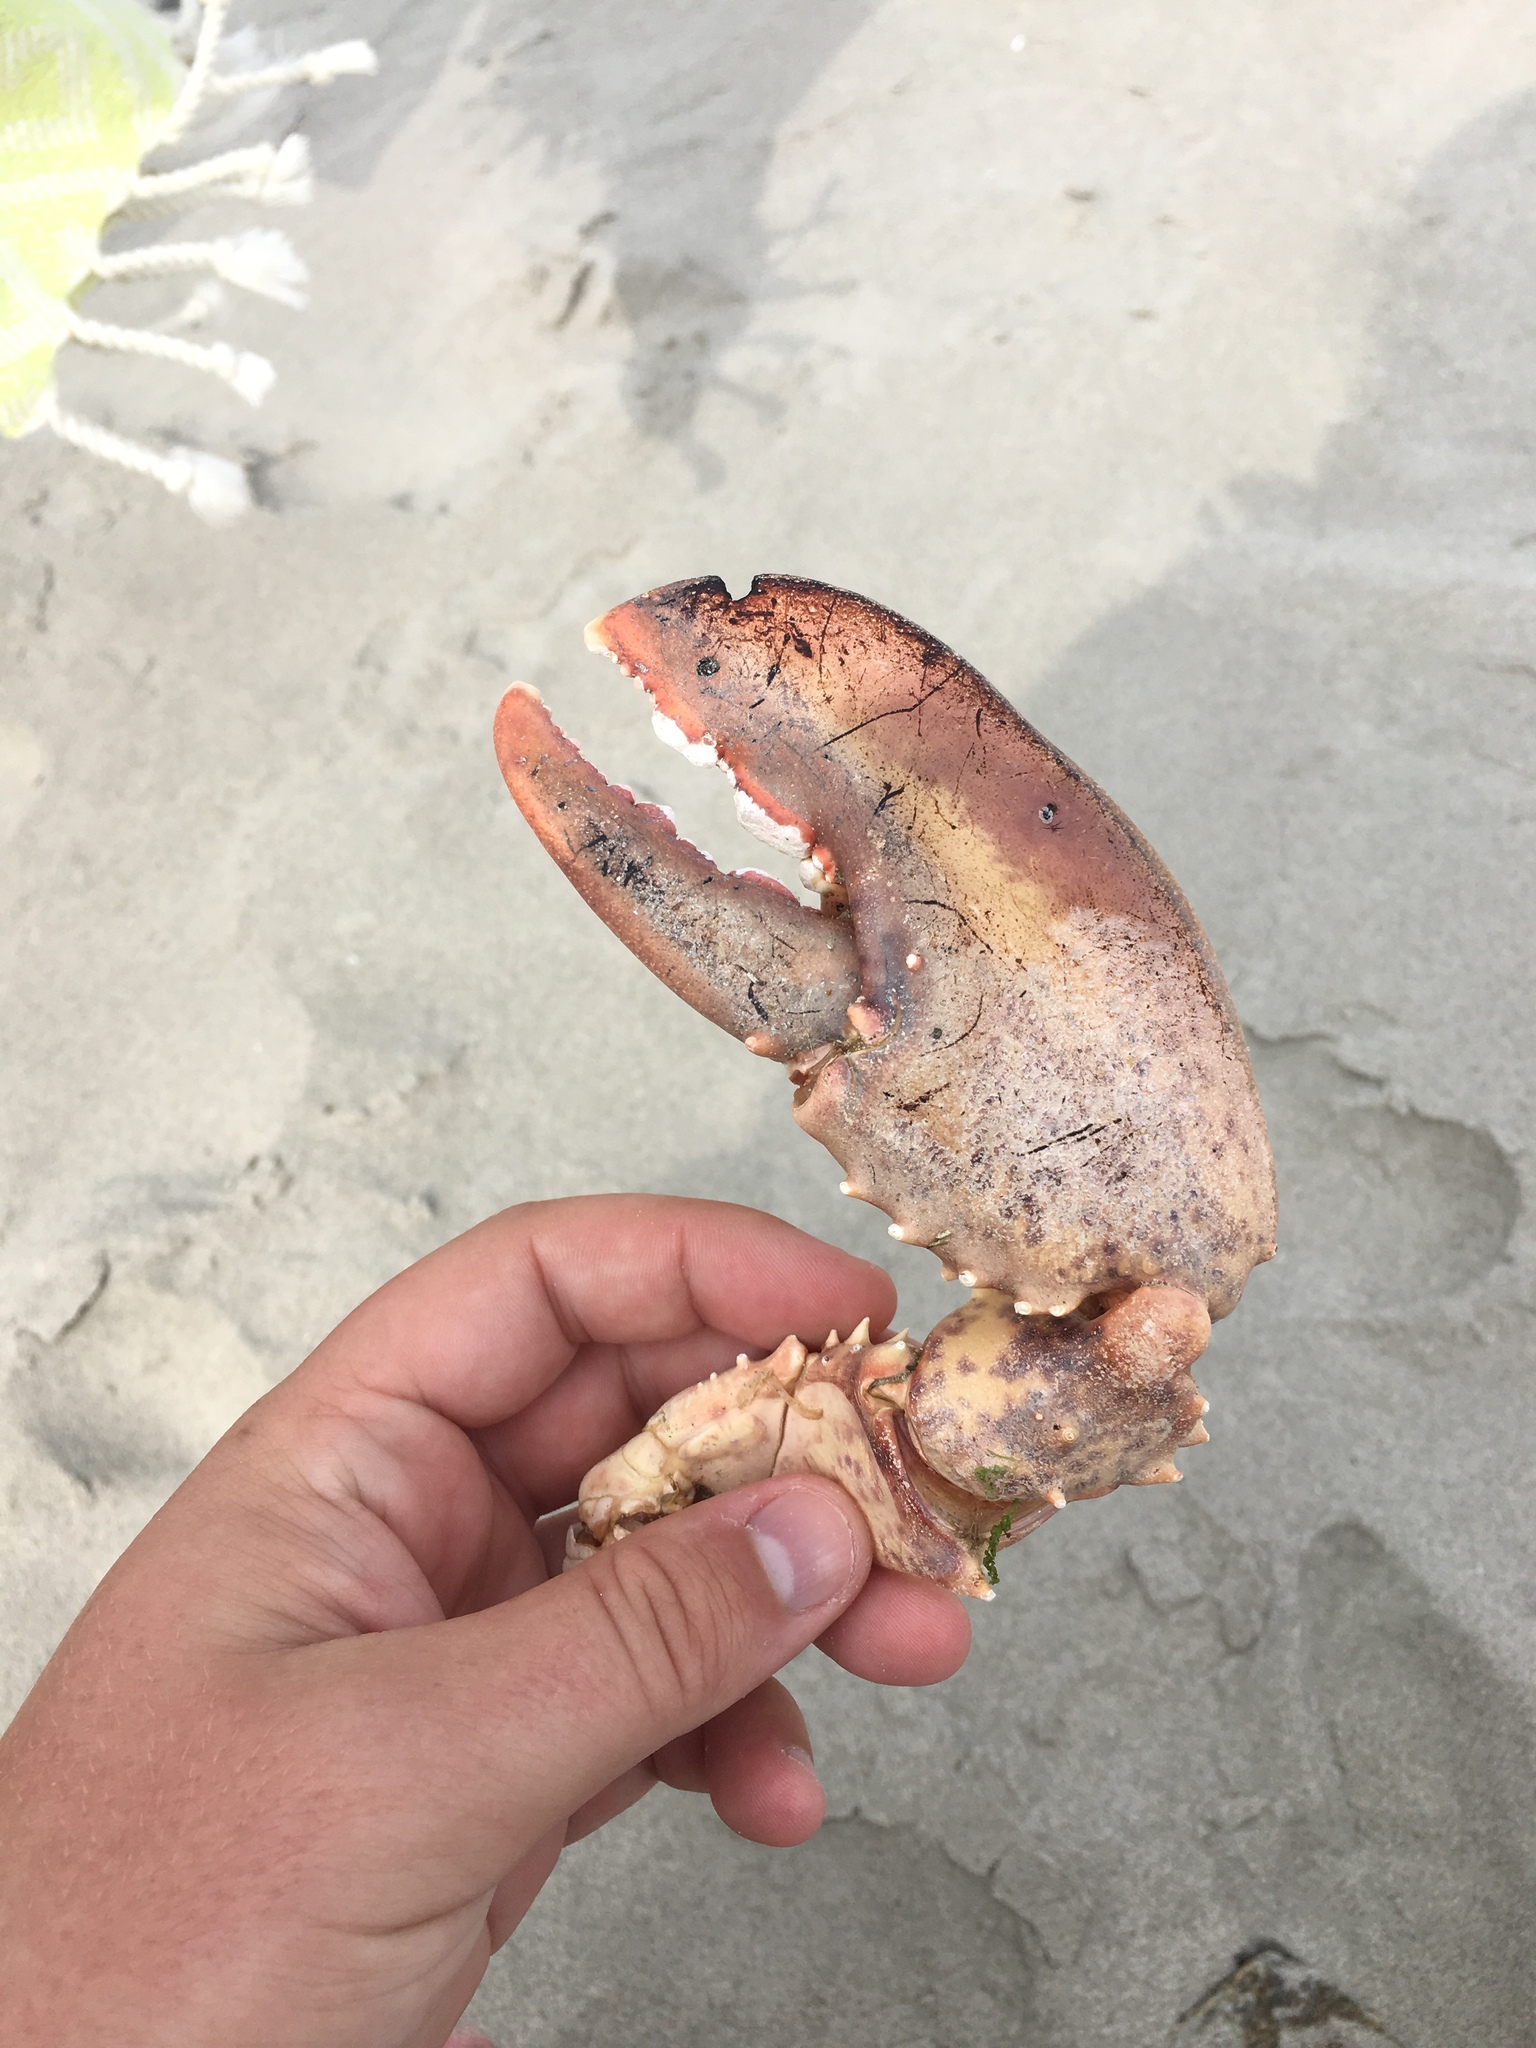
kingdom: Animalia
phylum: Arthropoda
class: Malacostraca
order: Decapoda
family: Nephropidae
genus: Homarus
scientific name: Homarus americanus
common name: American lobster
